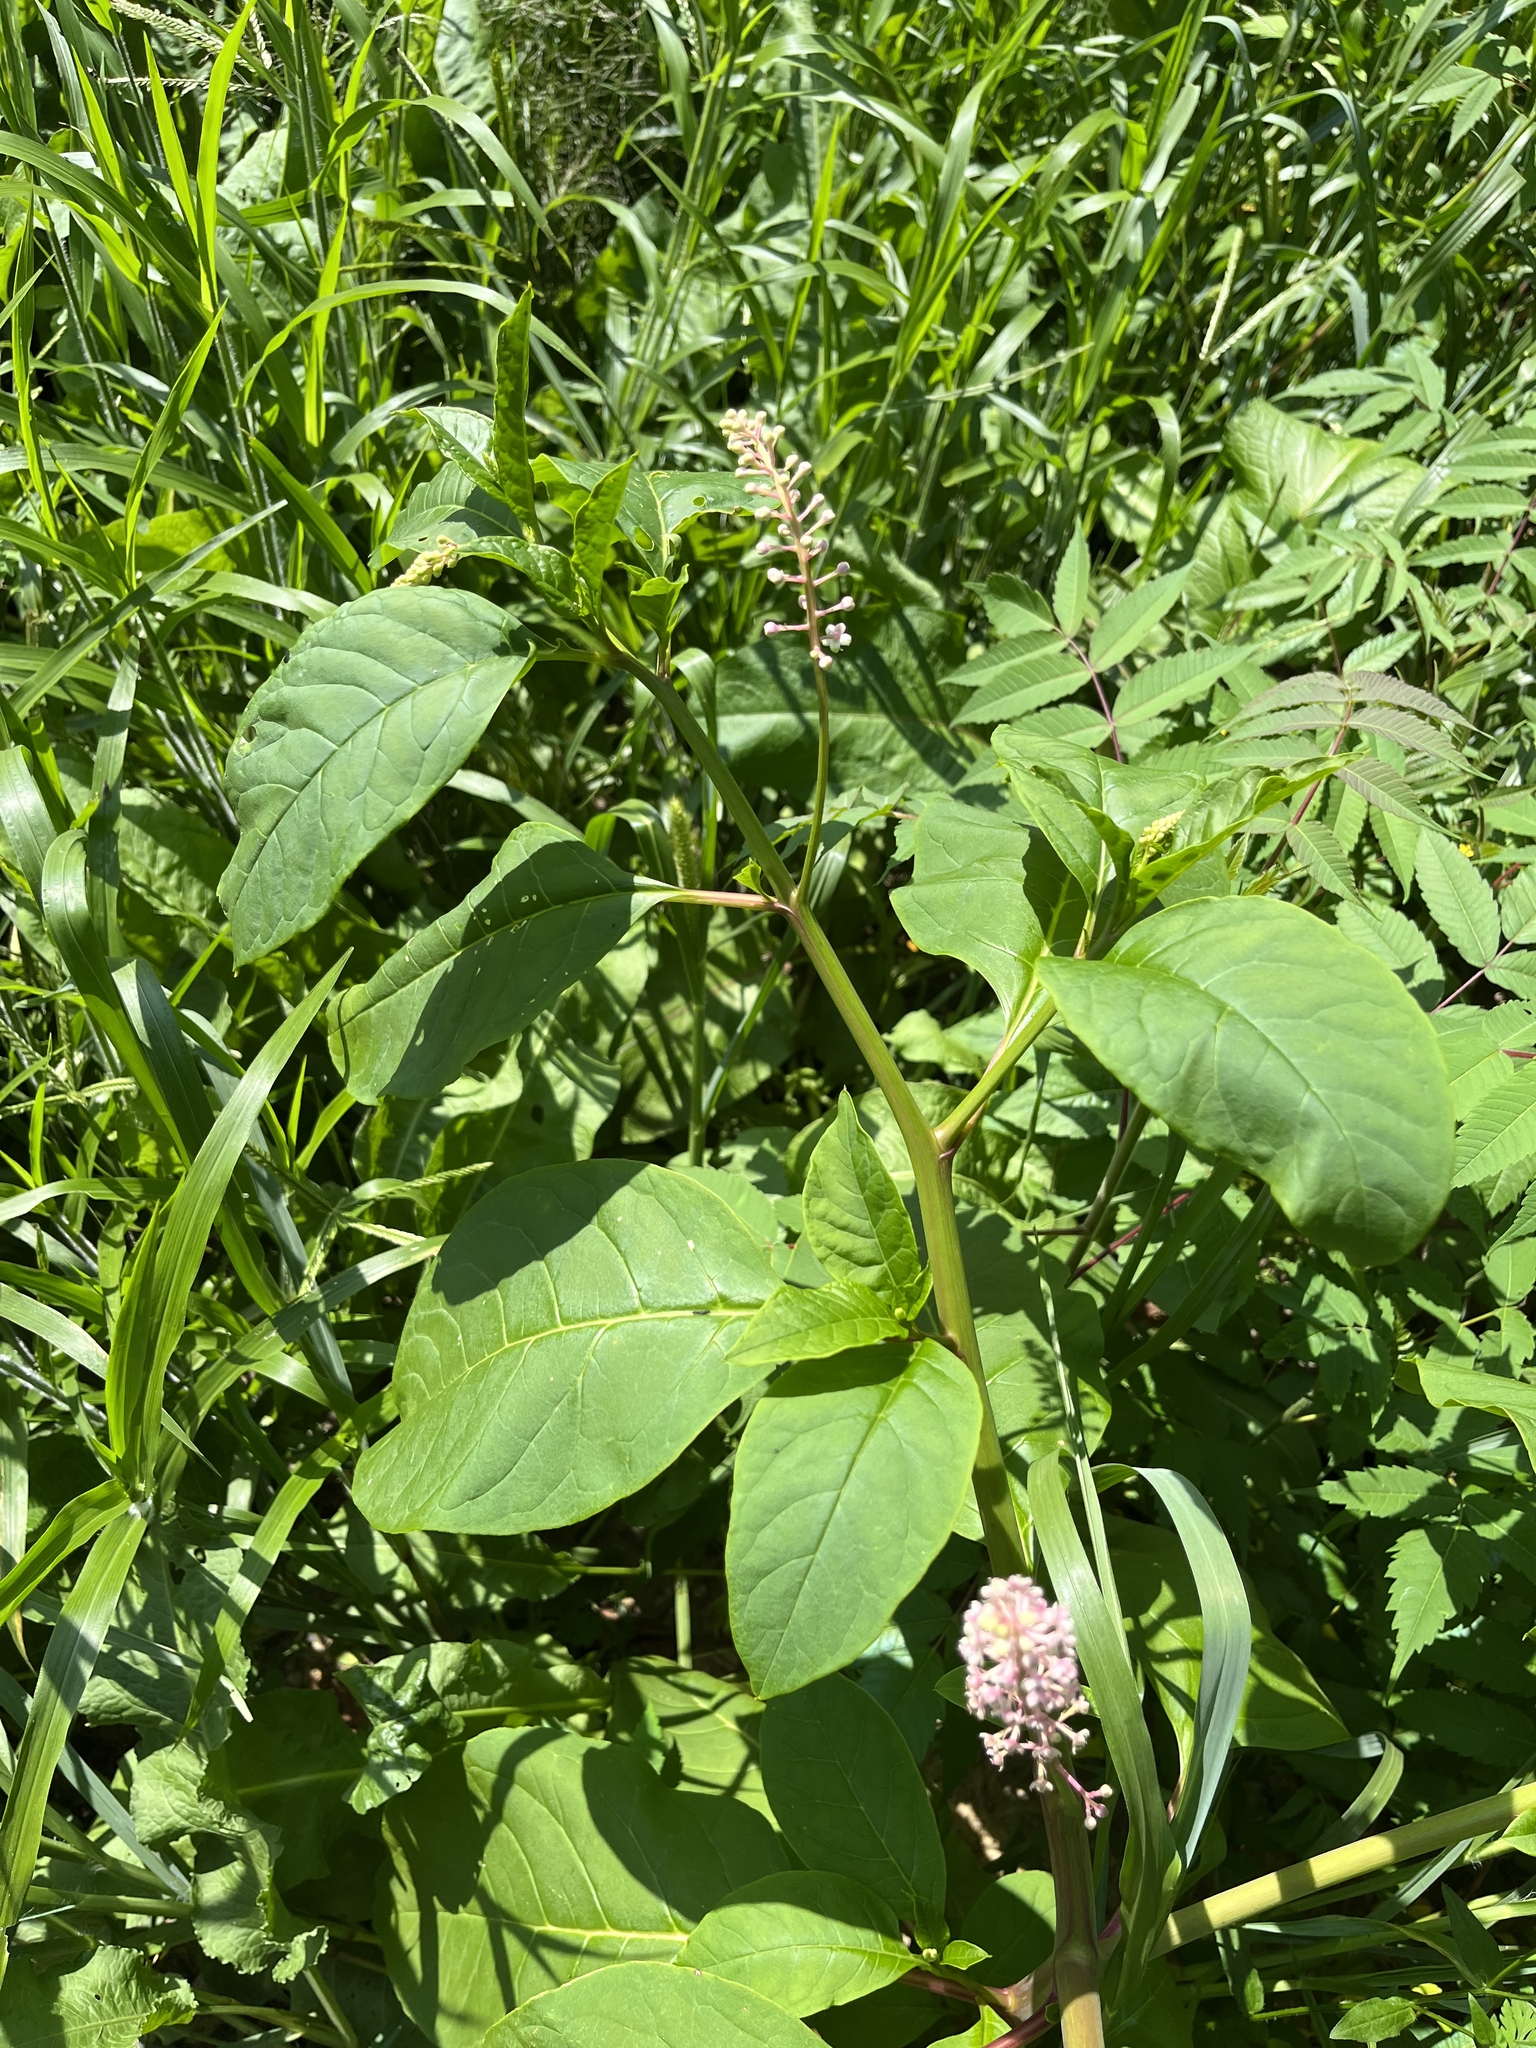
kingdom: Plantae
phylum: Tracheophyta
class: Magnoliopsida
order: Caryophyllales
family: Phytolaccaceae
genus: Phytolacca
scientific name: Phytolacca americana
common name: American pokeweed
